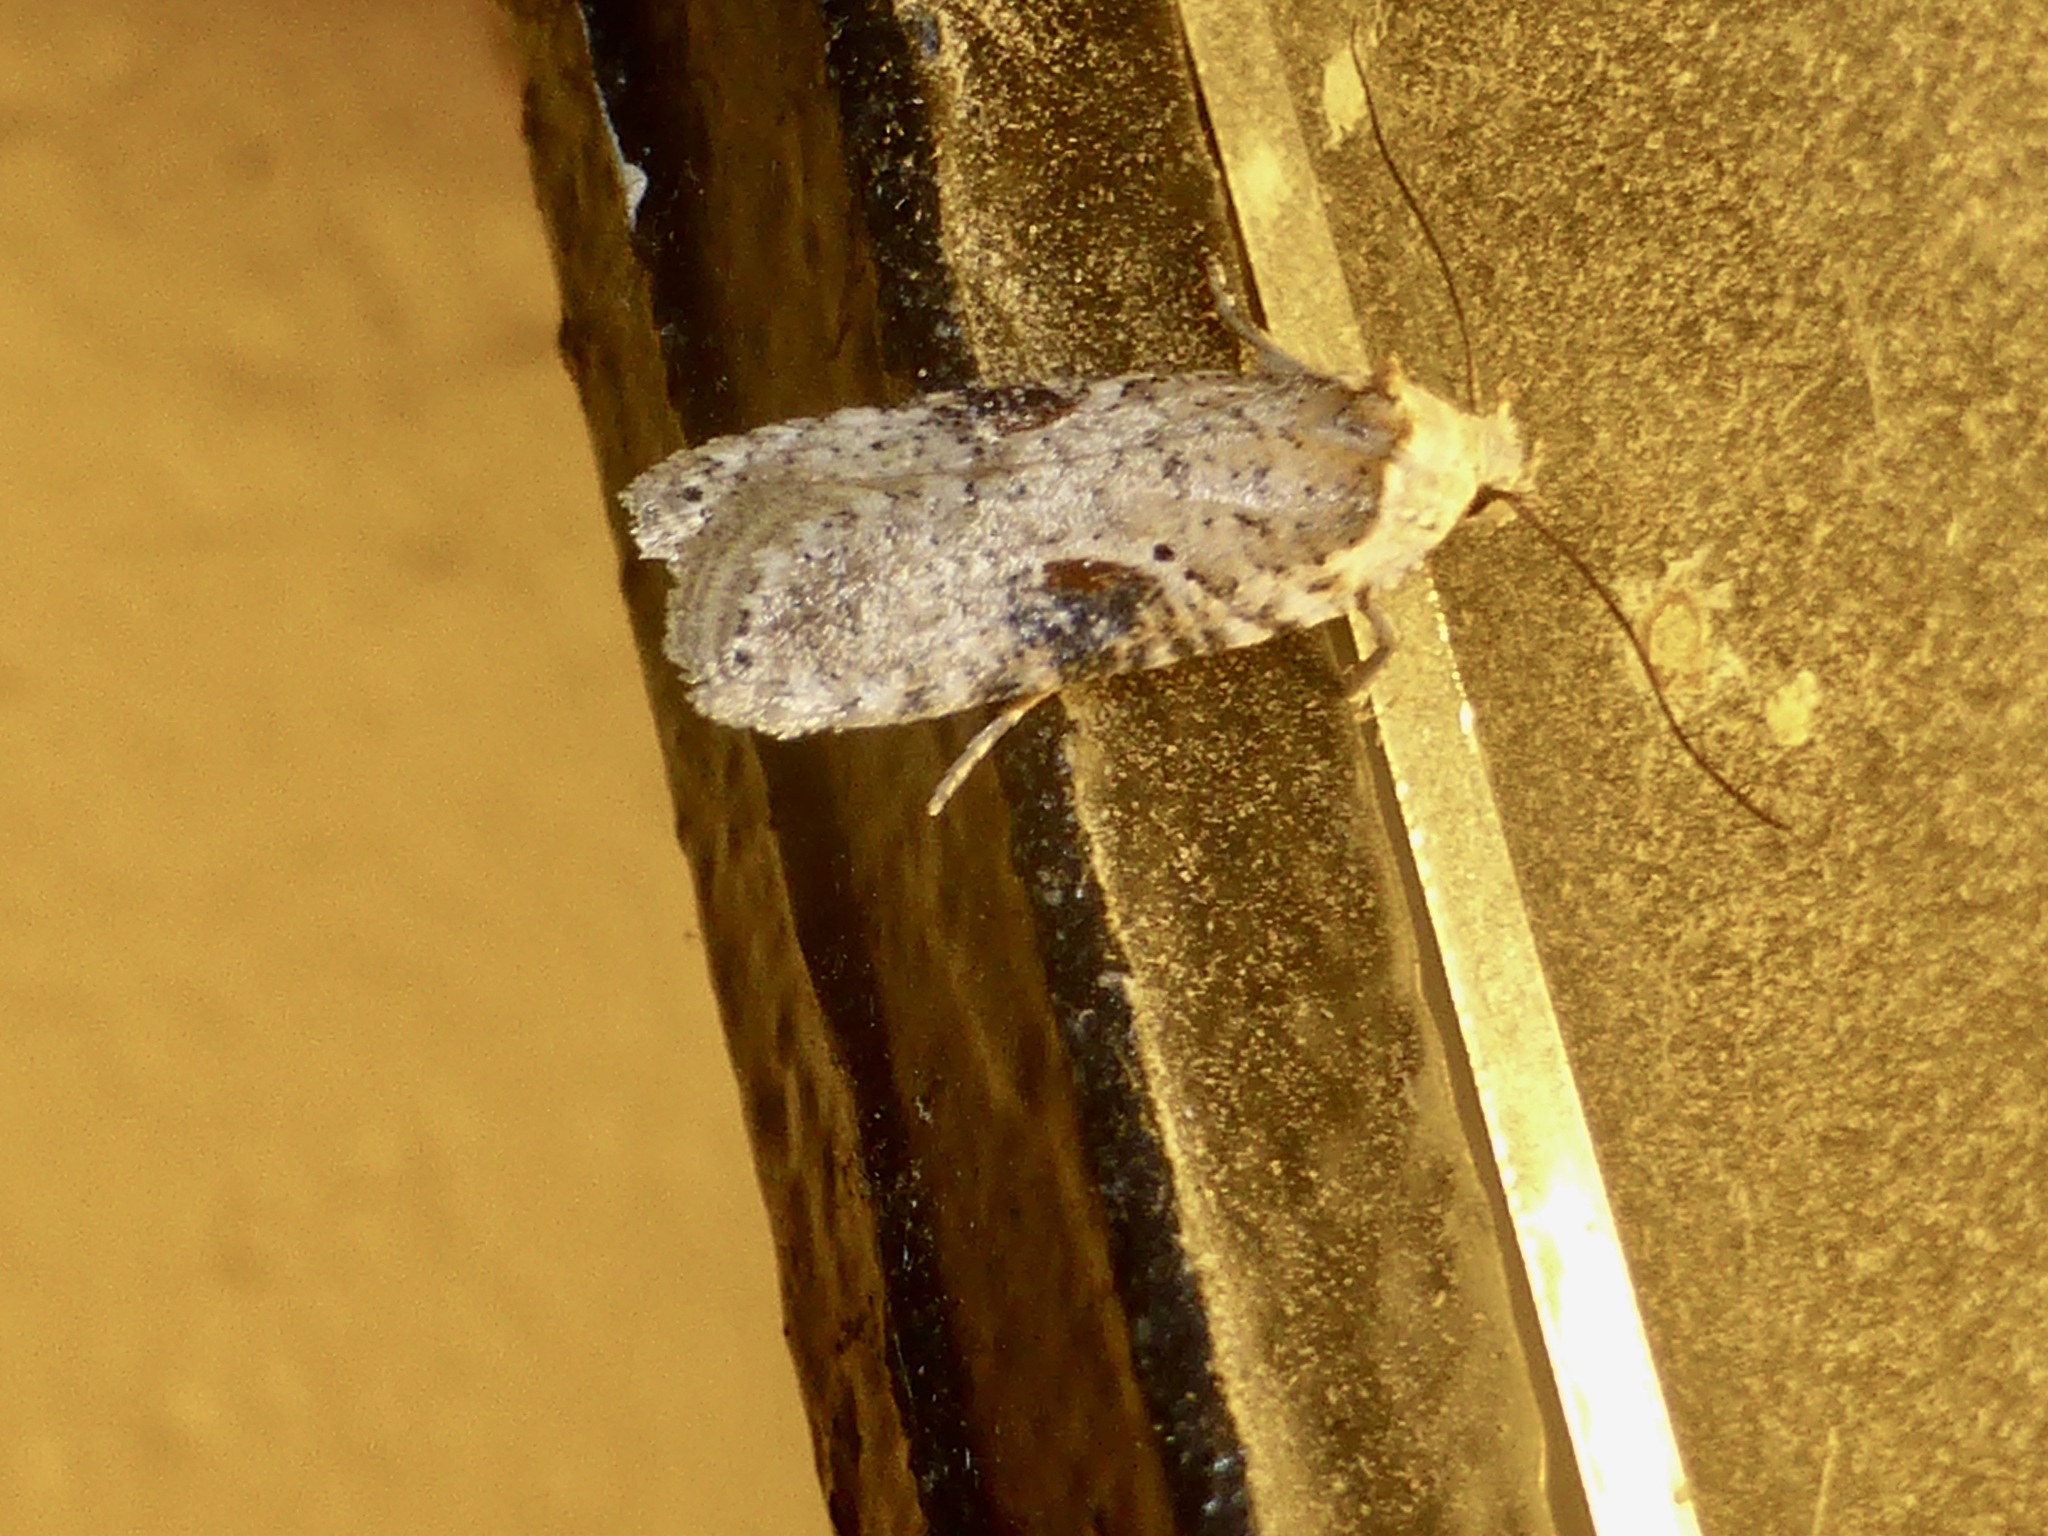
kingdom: Animalia
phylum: Arthropoda
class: Insecta
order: Lepidoptera
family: Depressariidae
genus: Agonopterix
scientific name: Agonopterix alstroemeriana
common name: Moth
